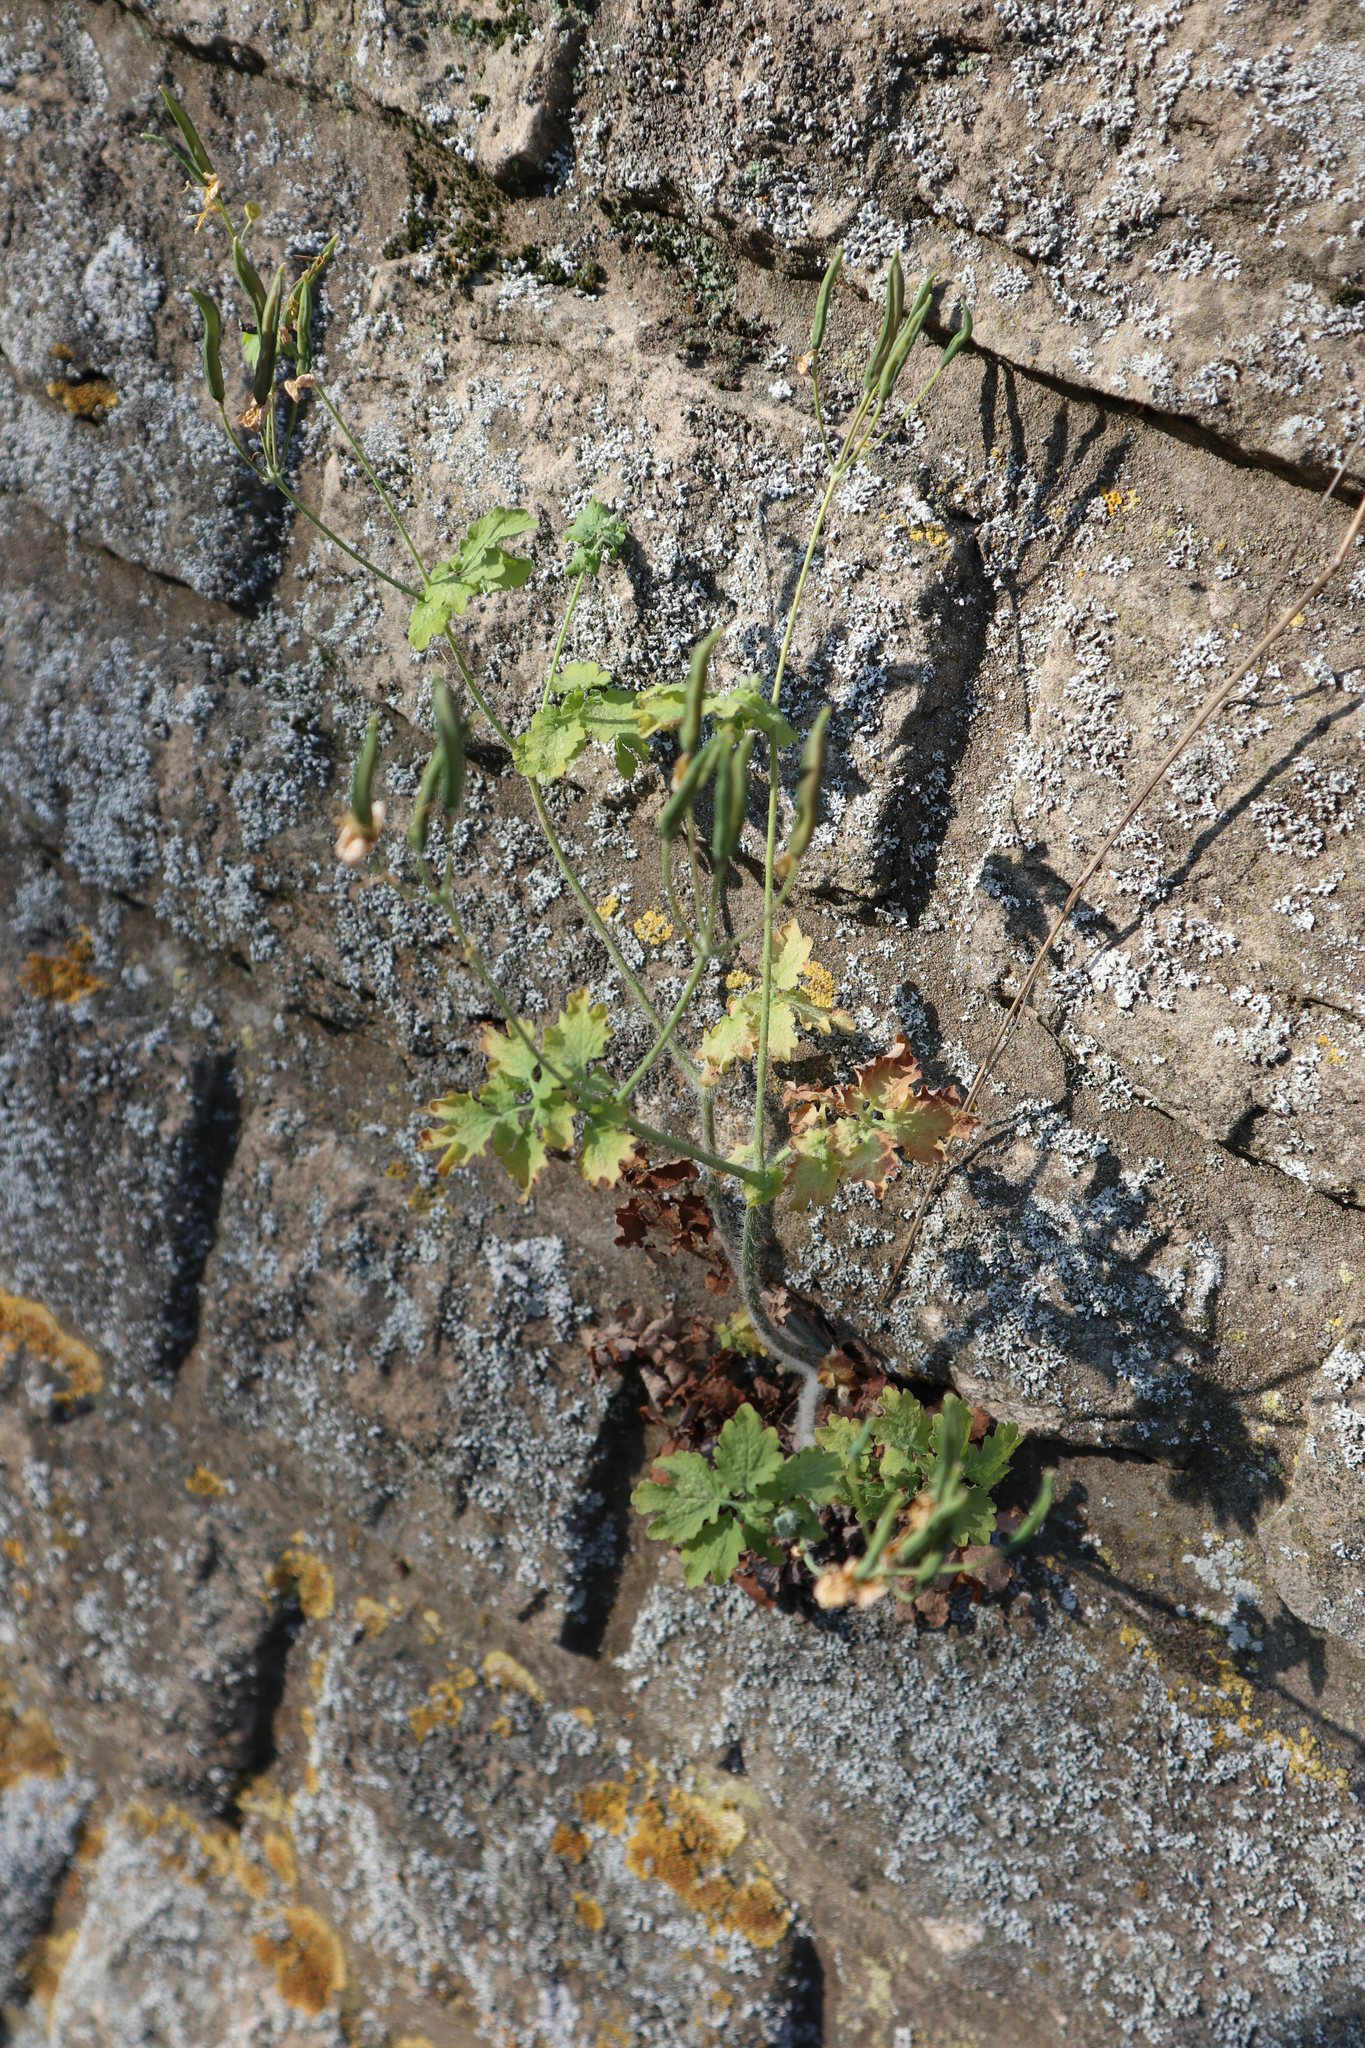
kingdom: Plantae
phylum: Tracheophyta
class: Magnoliopsida
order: Ranunculales
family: Papaveraceae
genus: Chelidonium
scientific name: Chelidonium majus
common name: Greater celandine
